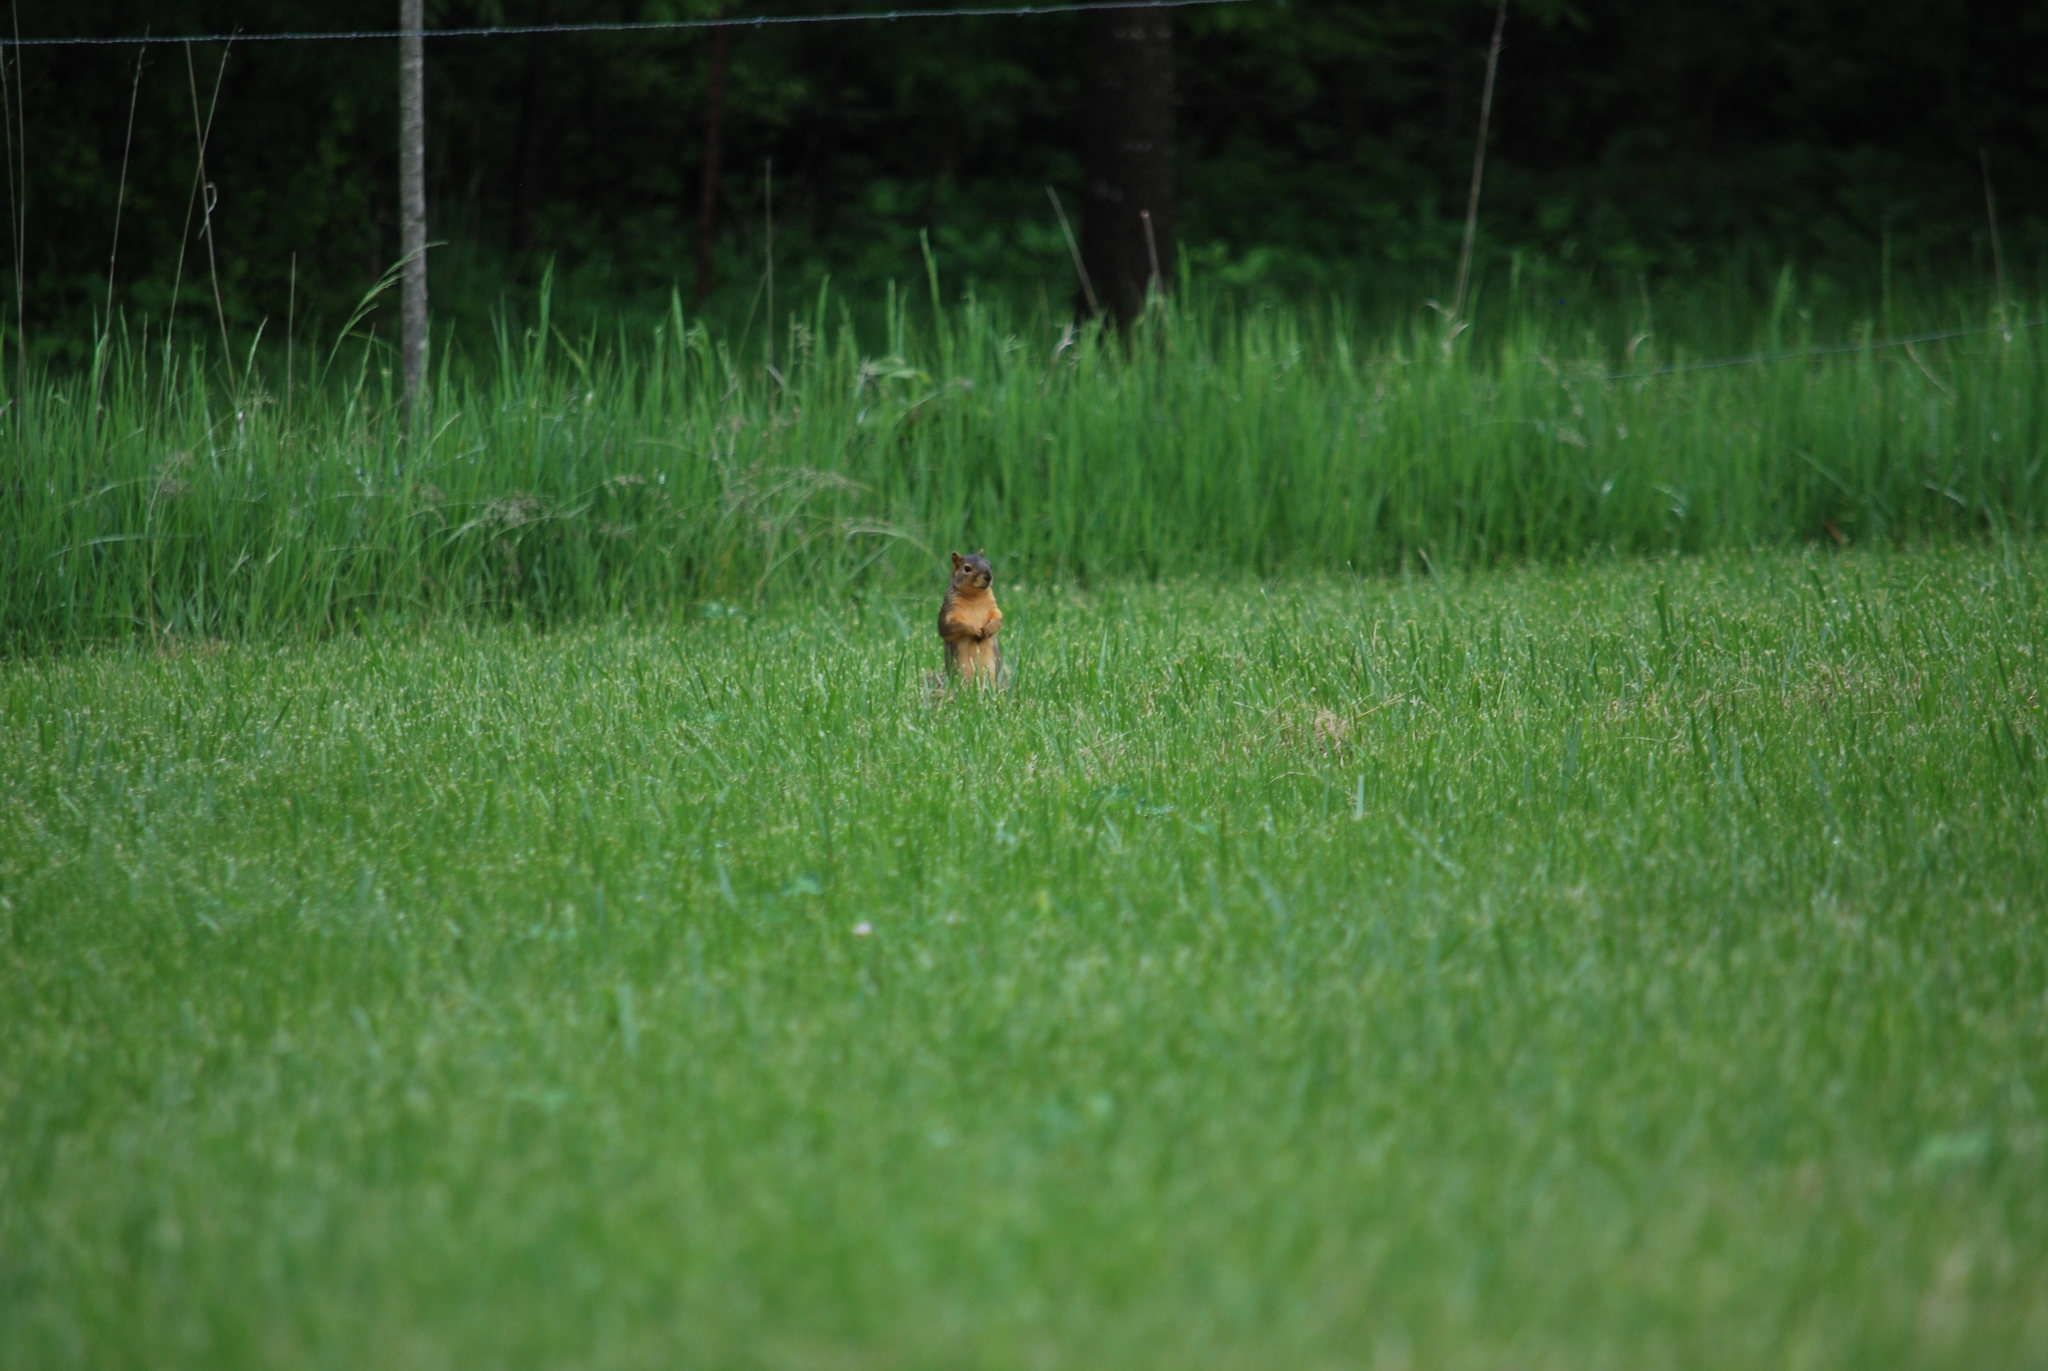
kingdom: Animalia
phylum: Chordata
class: Mammalia
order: Rodentia
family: Sciuridae
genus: Sciurus
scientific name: Sciurus niger
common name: Fox squirrel
